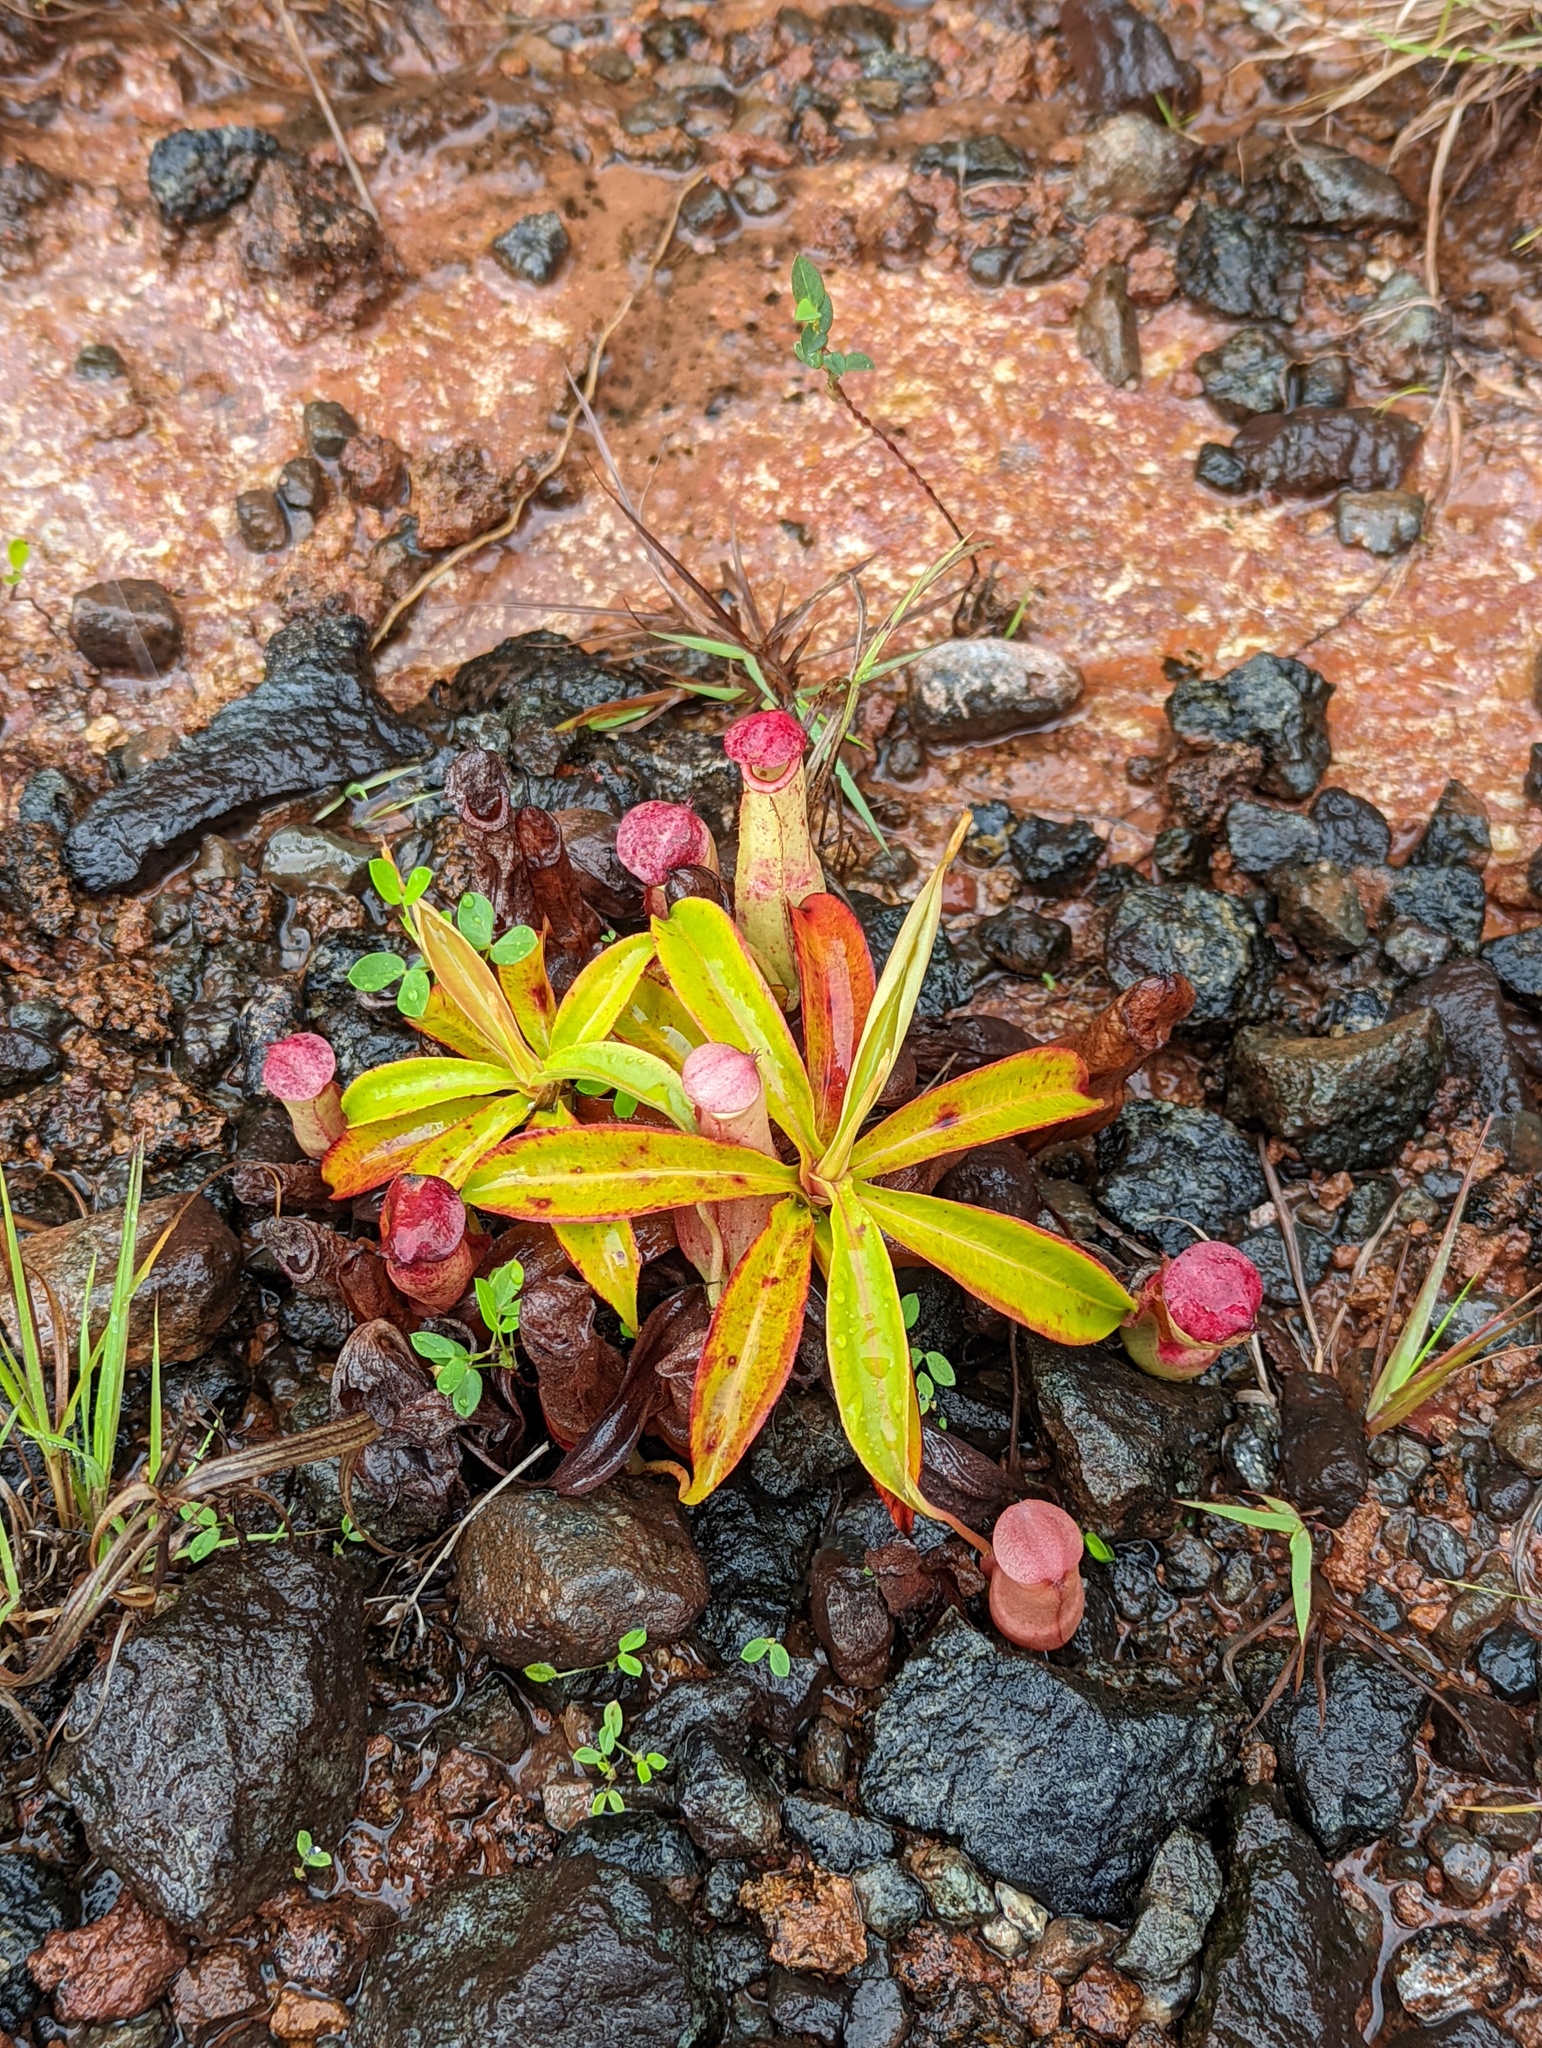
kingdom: Plantae
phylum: Tracheophyta
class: Magnoliopsida
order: Caryophyllales
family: Nepenthaceae
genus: Nepenthes
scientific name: Nepenthes mirabilis
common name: Tropical pitcherplant
